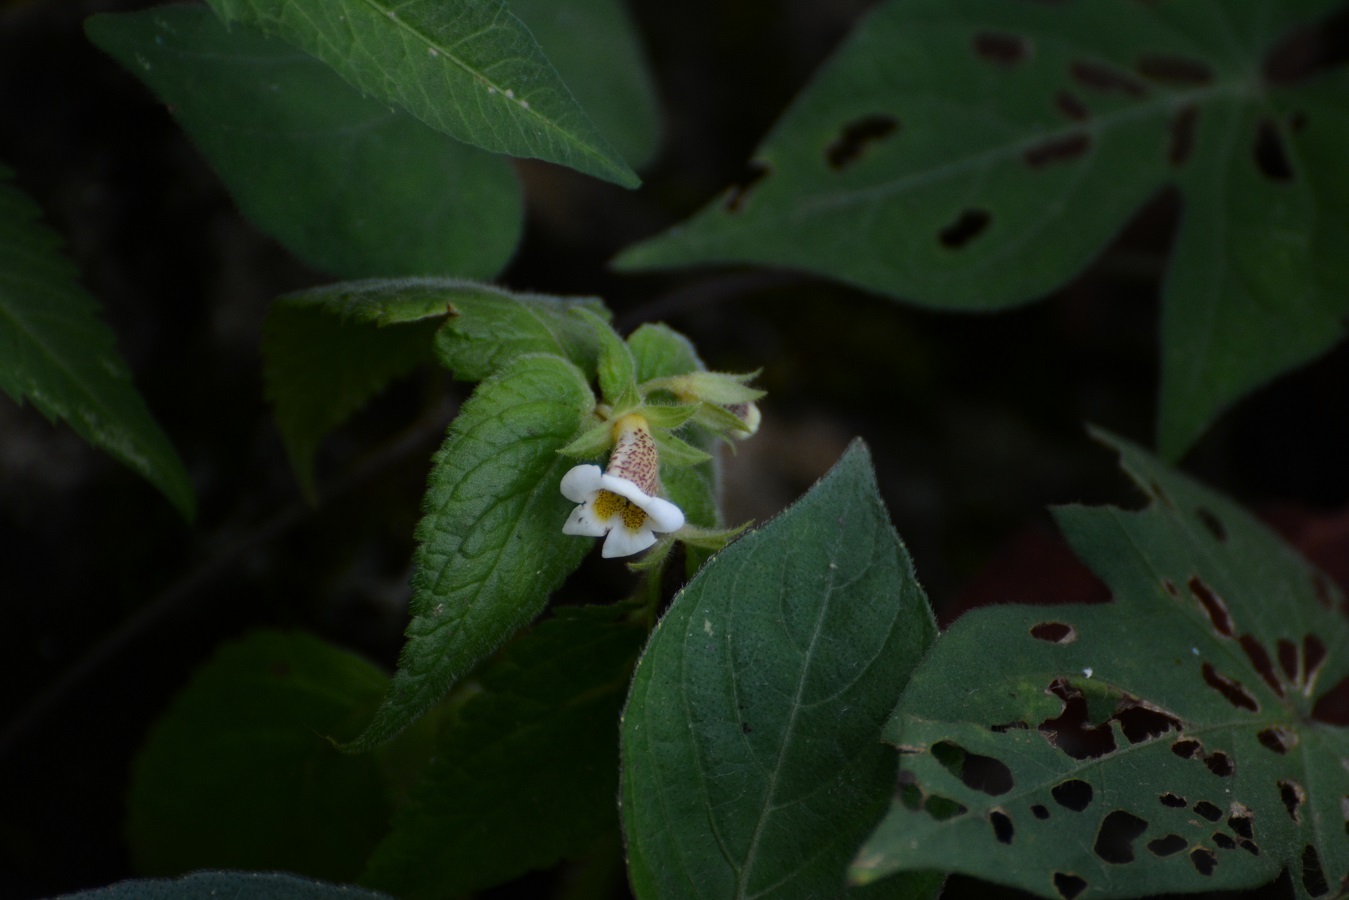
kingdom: Plantae
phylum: Tracheophyta
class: Magnoliopsida
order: Lamiales
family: Gesneriaceae
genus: Achimenes
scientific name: Achimenes misera
